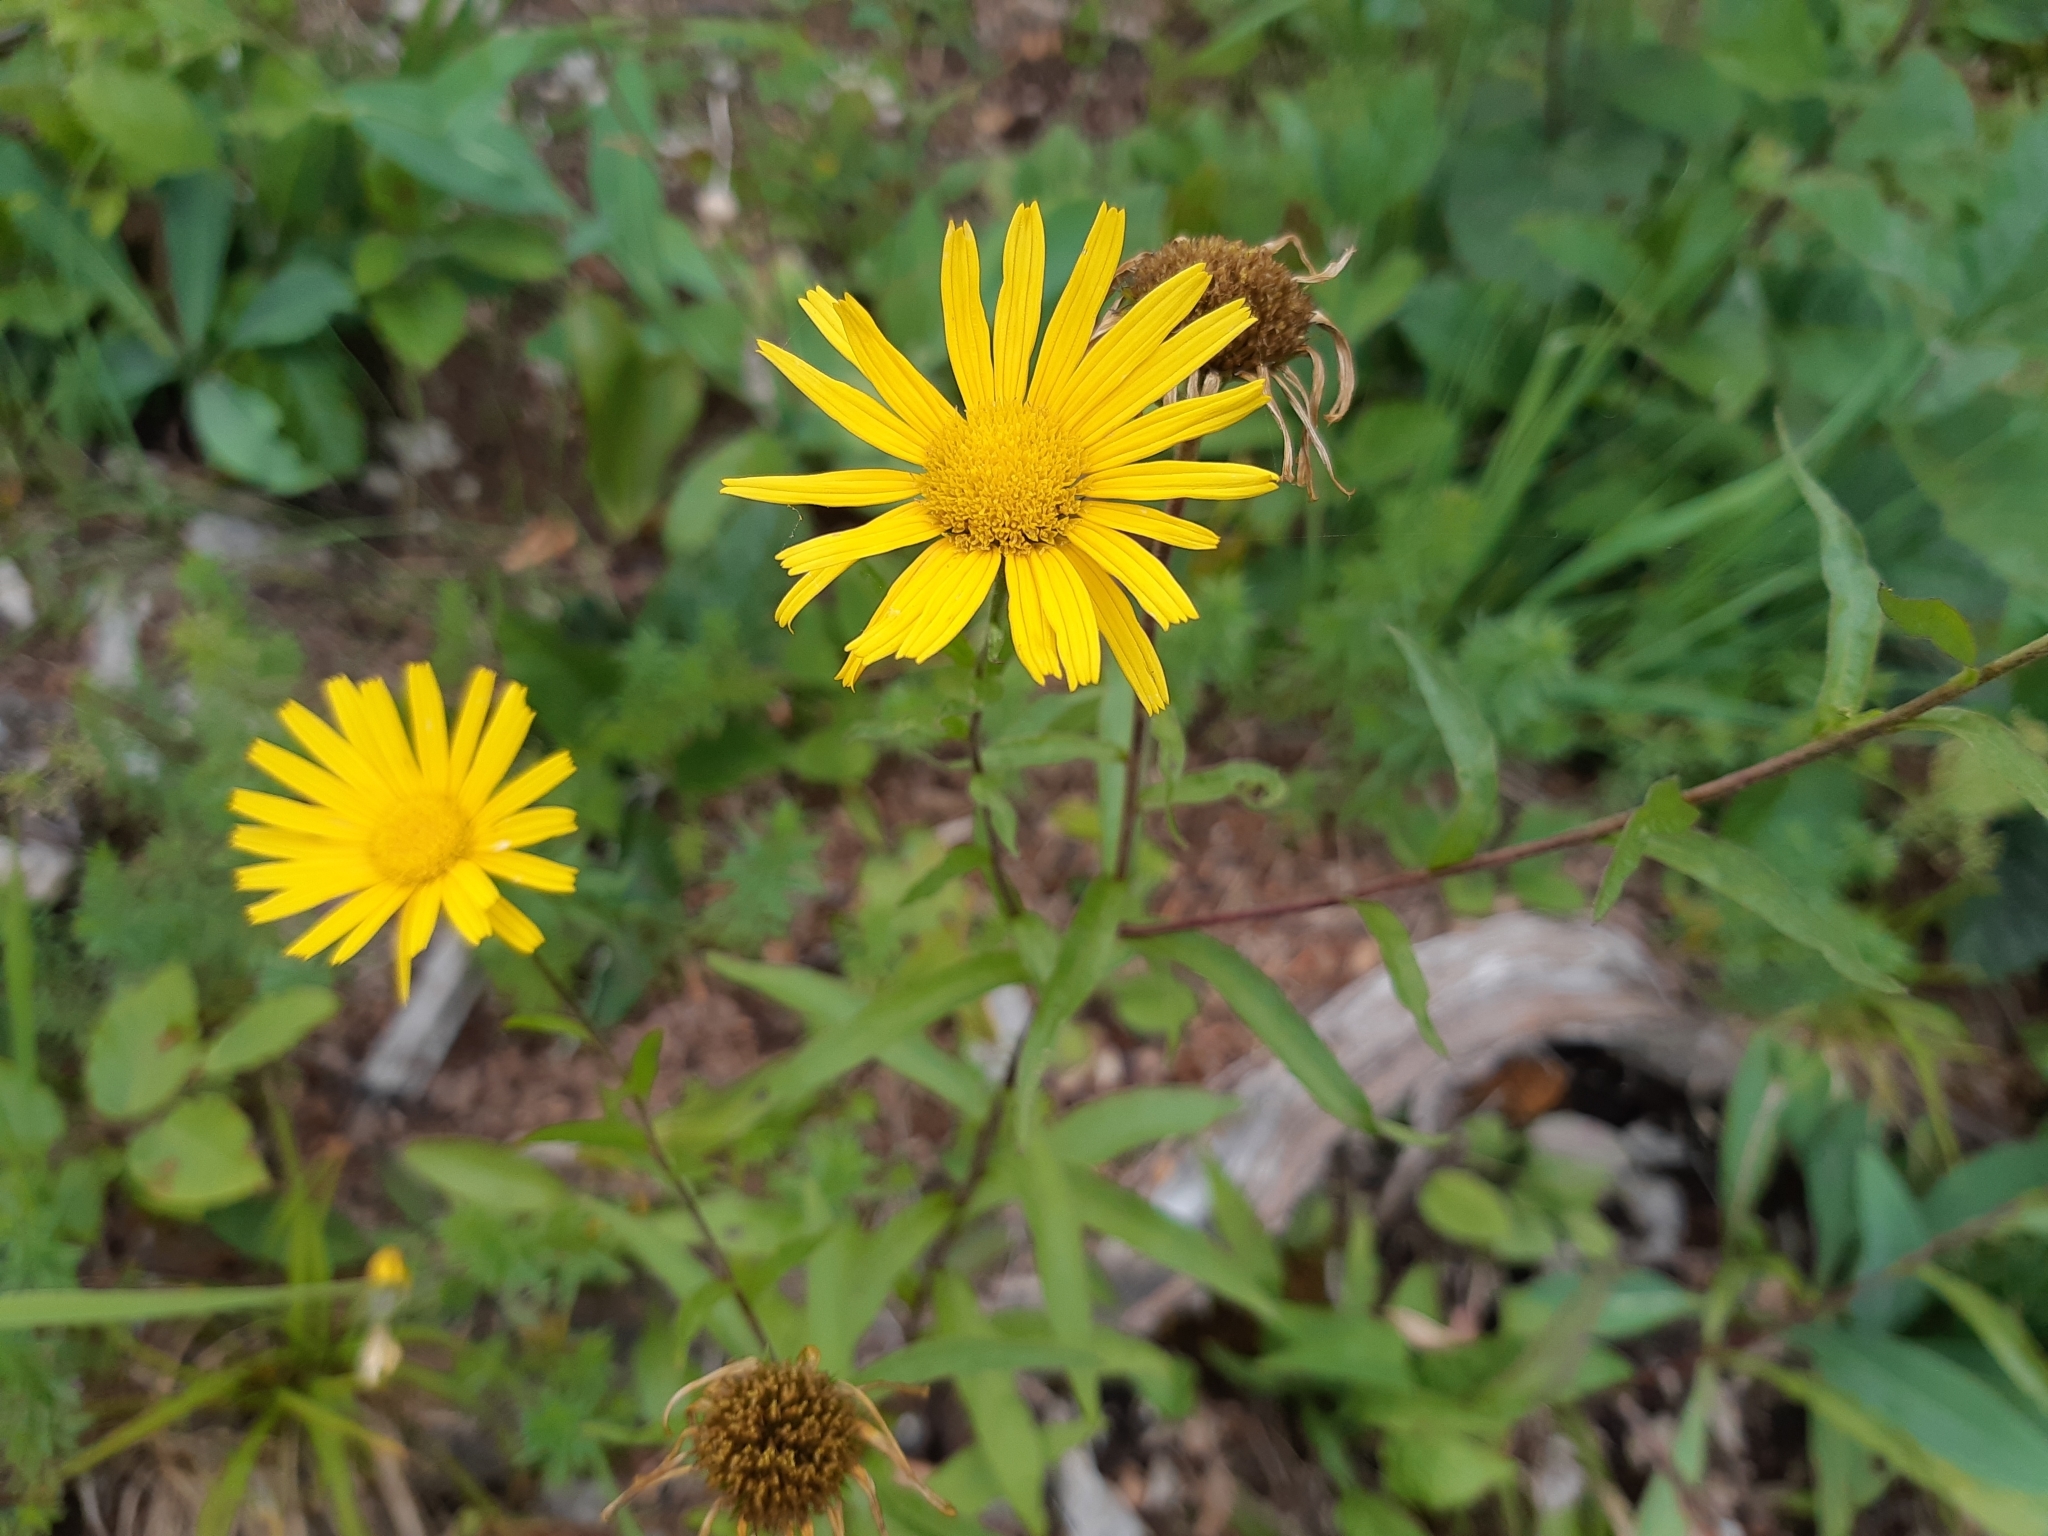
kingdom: Plantae
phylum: Tracheophyta
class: Magnoliopsida
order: Asterales
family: Asteraceae
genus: Buphthalmum
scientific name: Buphthalmum salicifolium
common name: Willow-leaved yellow-oxeye
